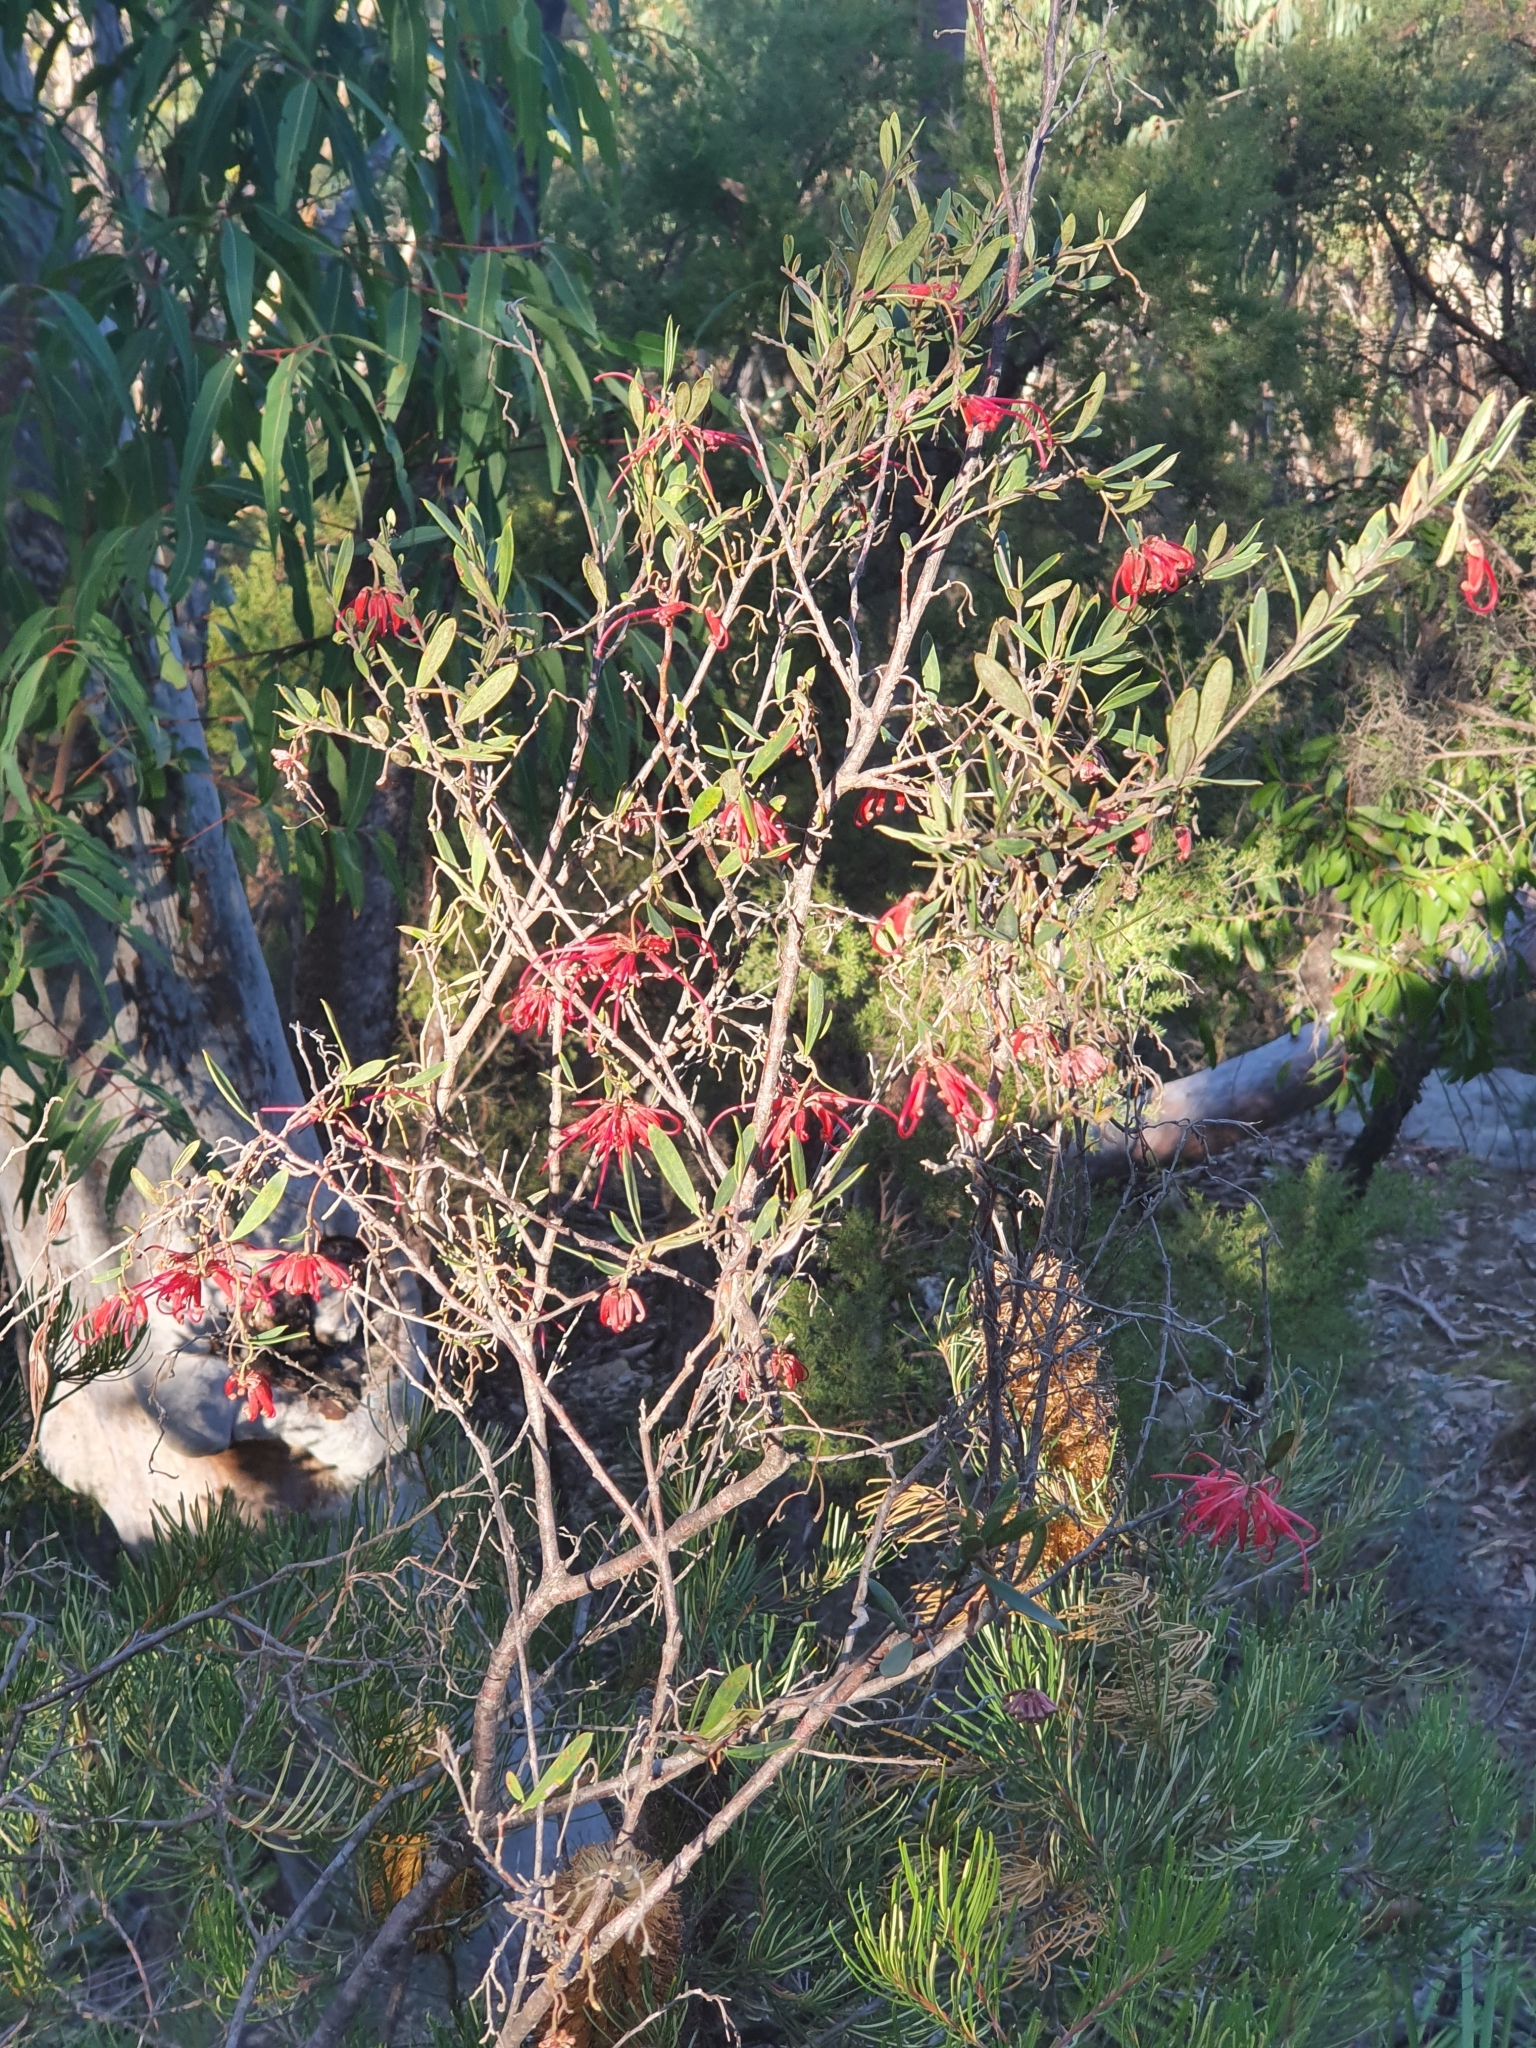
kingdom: Plantae
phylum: Tracheophyta
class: Magnoliopsida
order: Proteales
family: Proteaceae
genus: Grevillea
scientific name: Grevillea speciosa
